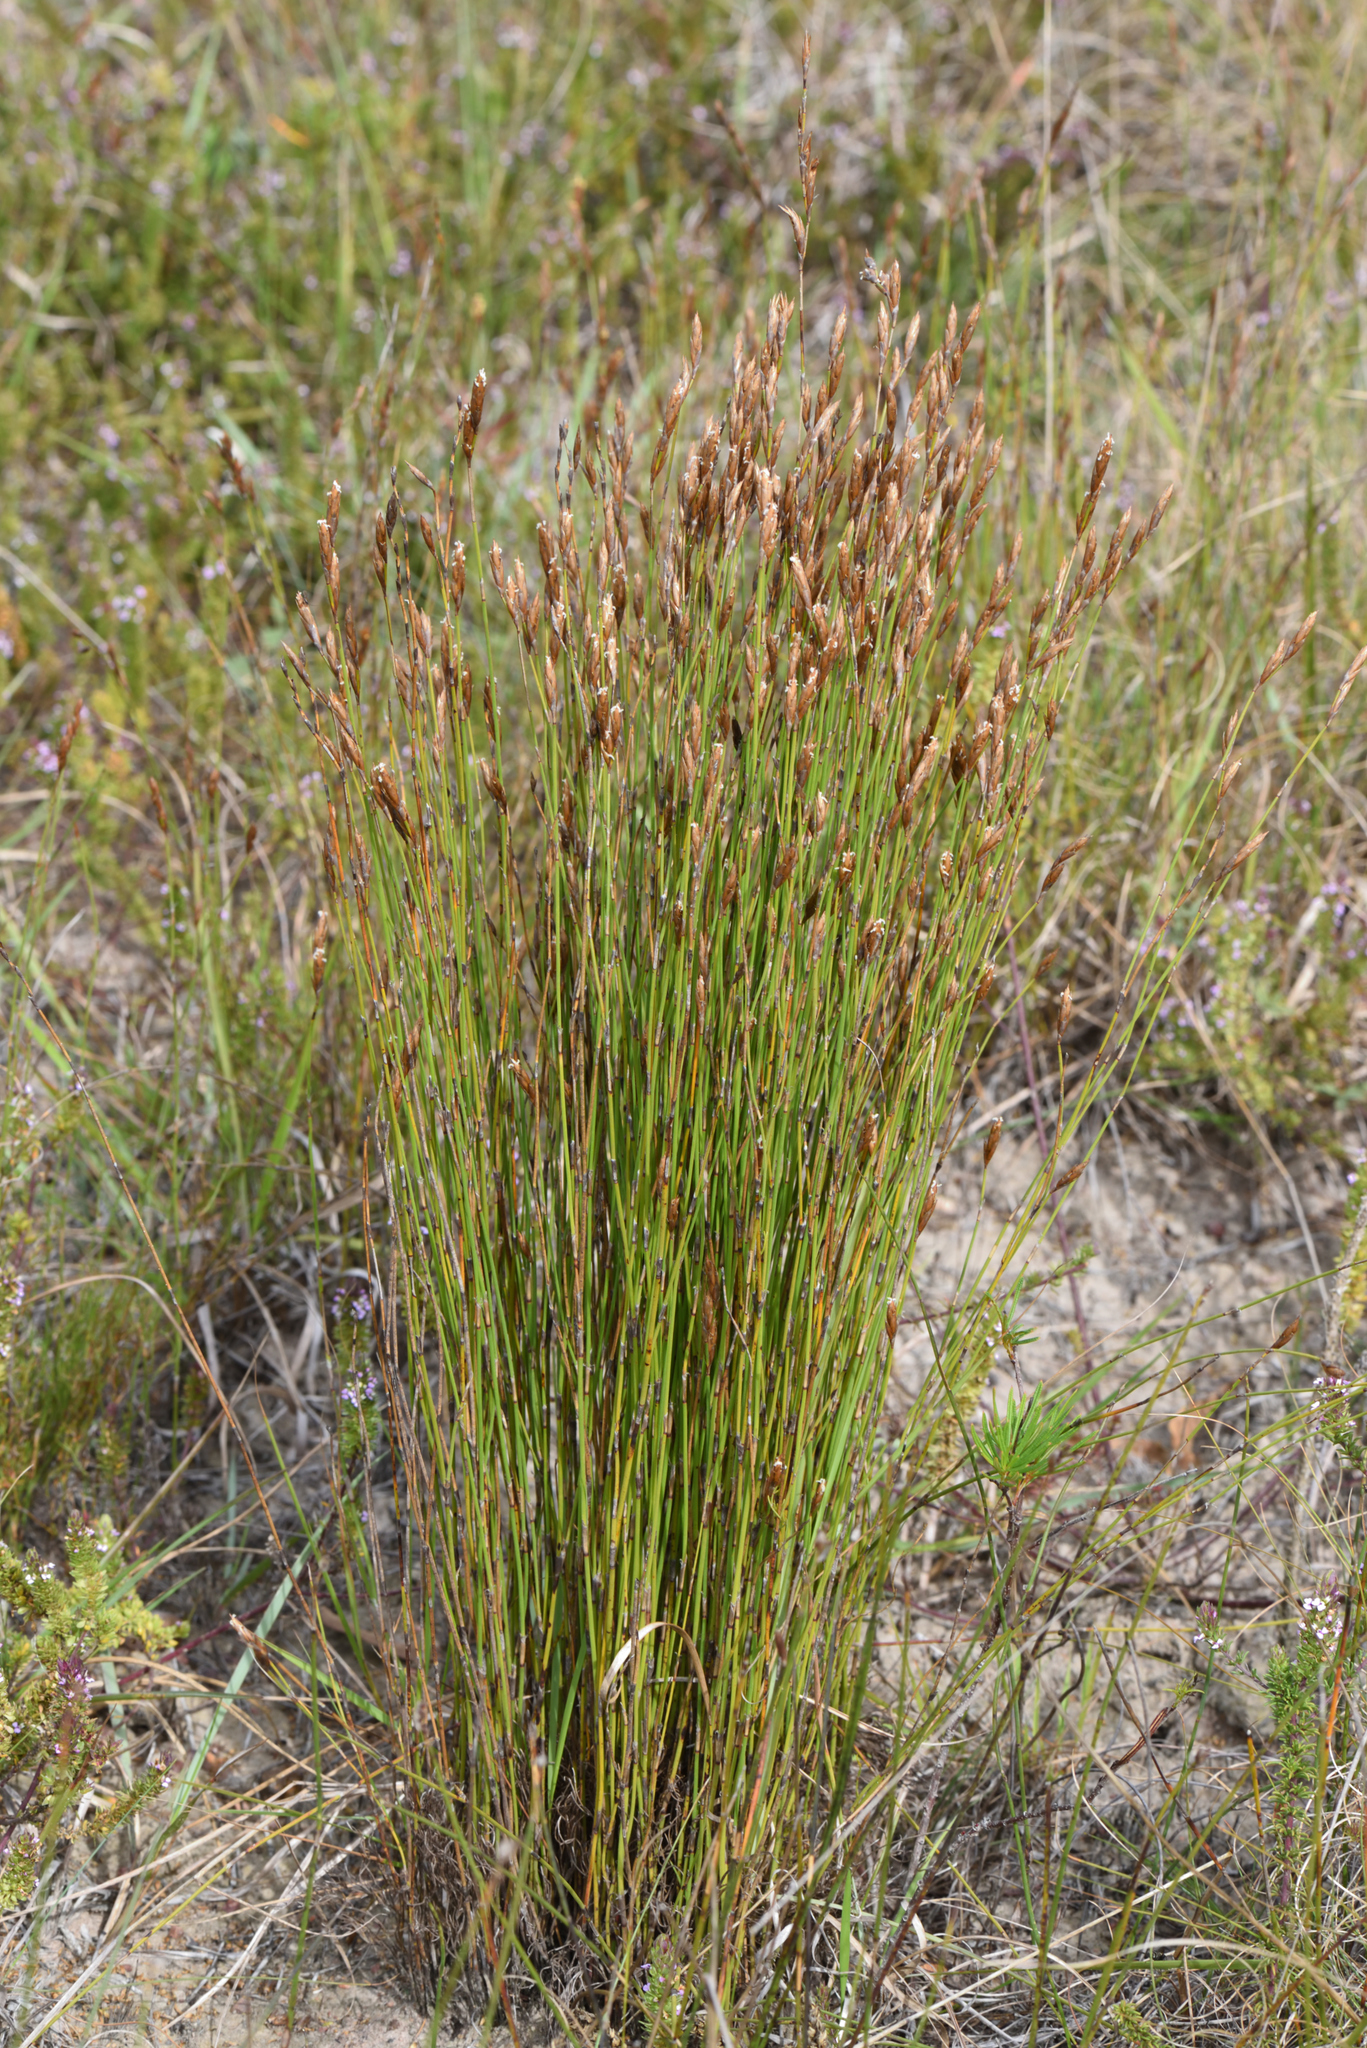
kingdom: Plantae
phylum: Tracheophyta
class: Liliopsida
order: Poales
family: Restionaceae
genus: Restio
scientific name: Restio triticeus
